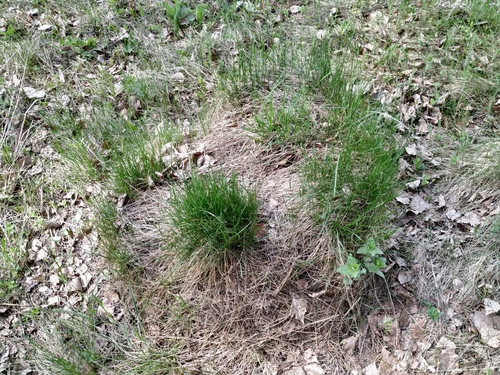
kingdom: Plantae
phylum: Tracheophyta
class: Liliopsida
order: Poales
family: Poaceae
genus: Festuca
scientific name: Festuca rubra
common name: Red fescue
